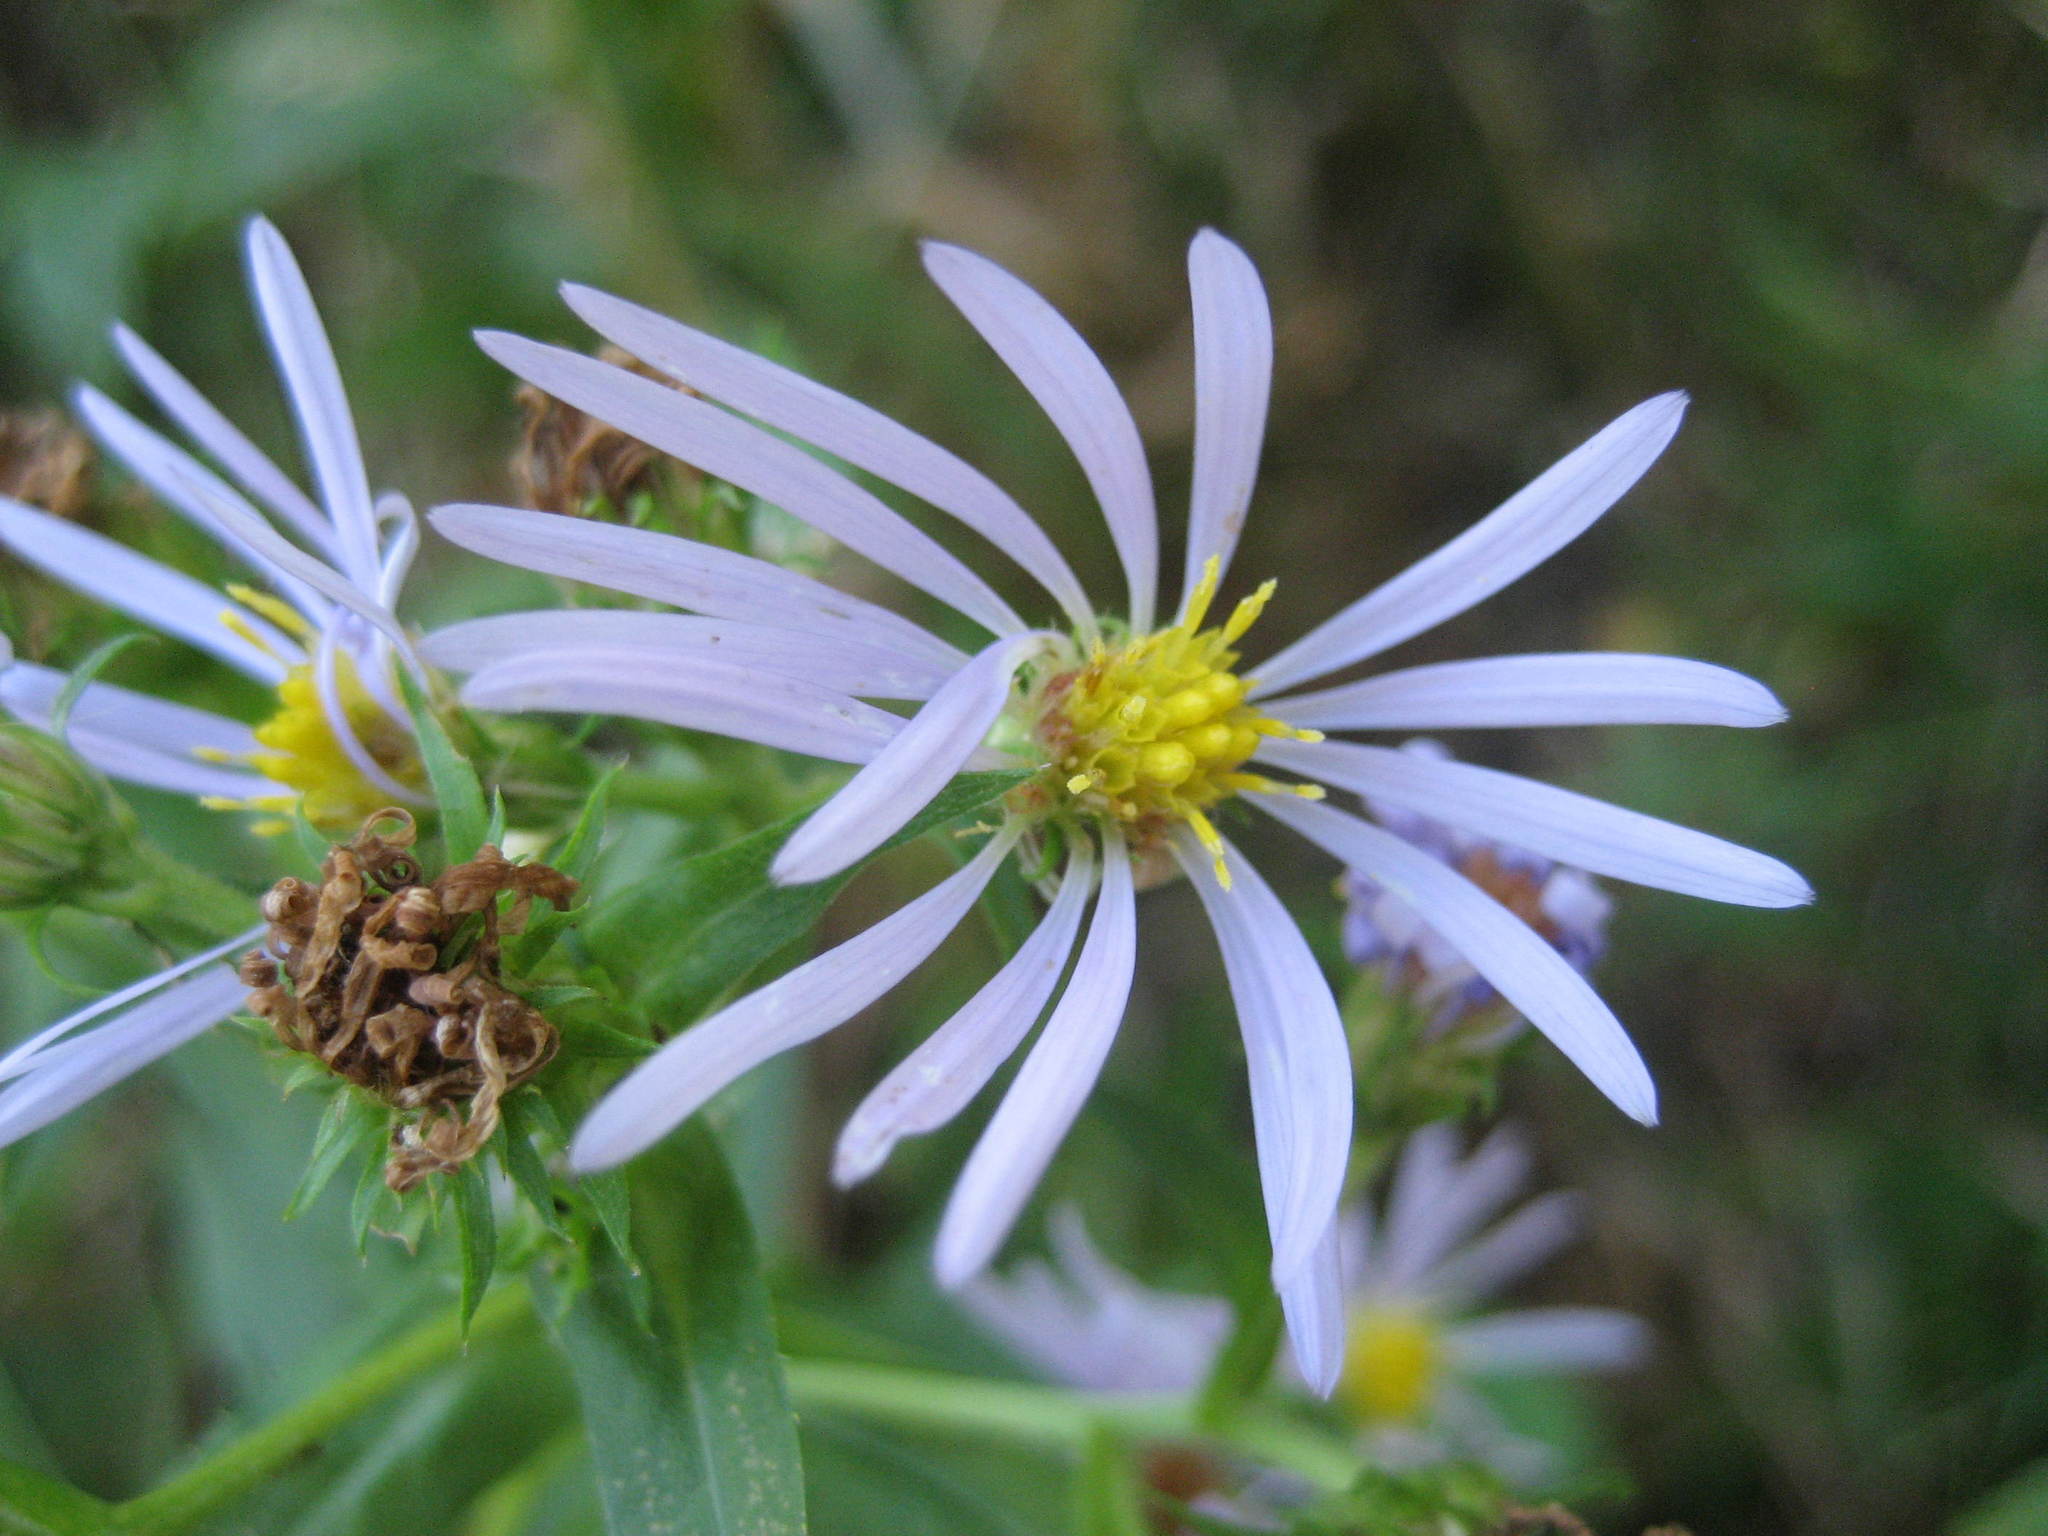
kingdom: Plantae
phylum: Tracheophyta
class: Magnoliopsida
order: Asterales
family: Asteraceae
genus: Symphyotrichum
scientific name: Symphyotrichum puniceum
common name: Bog aster
